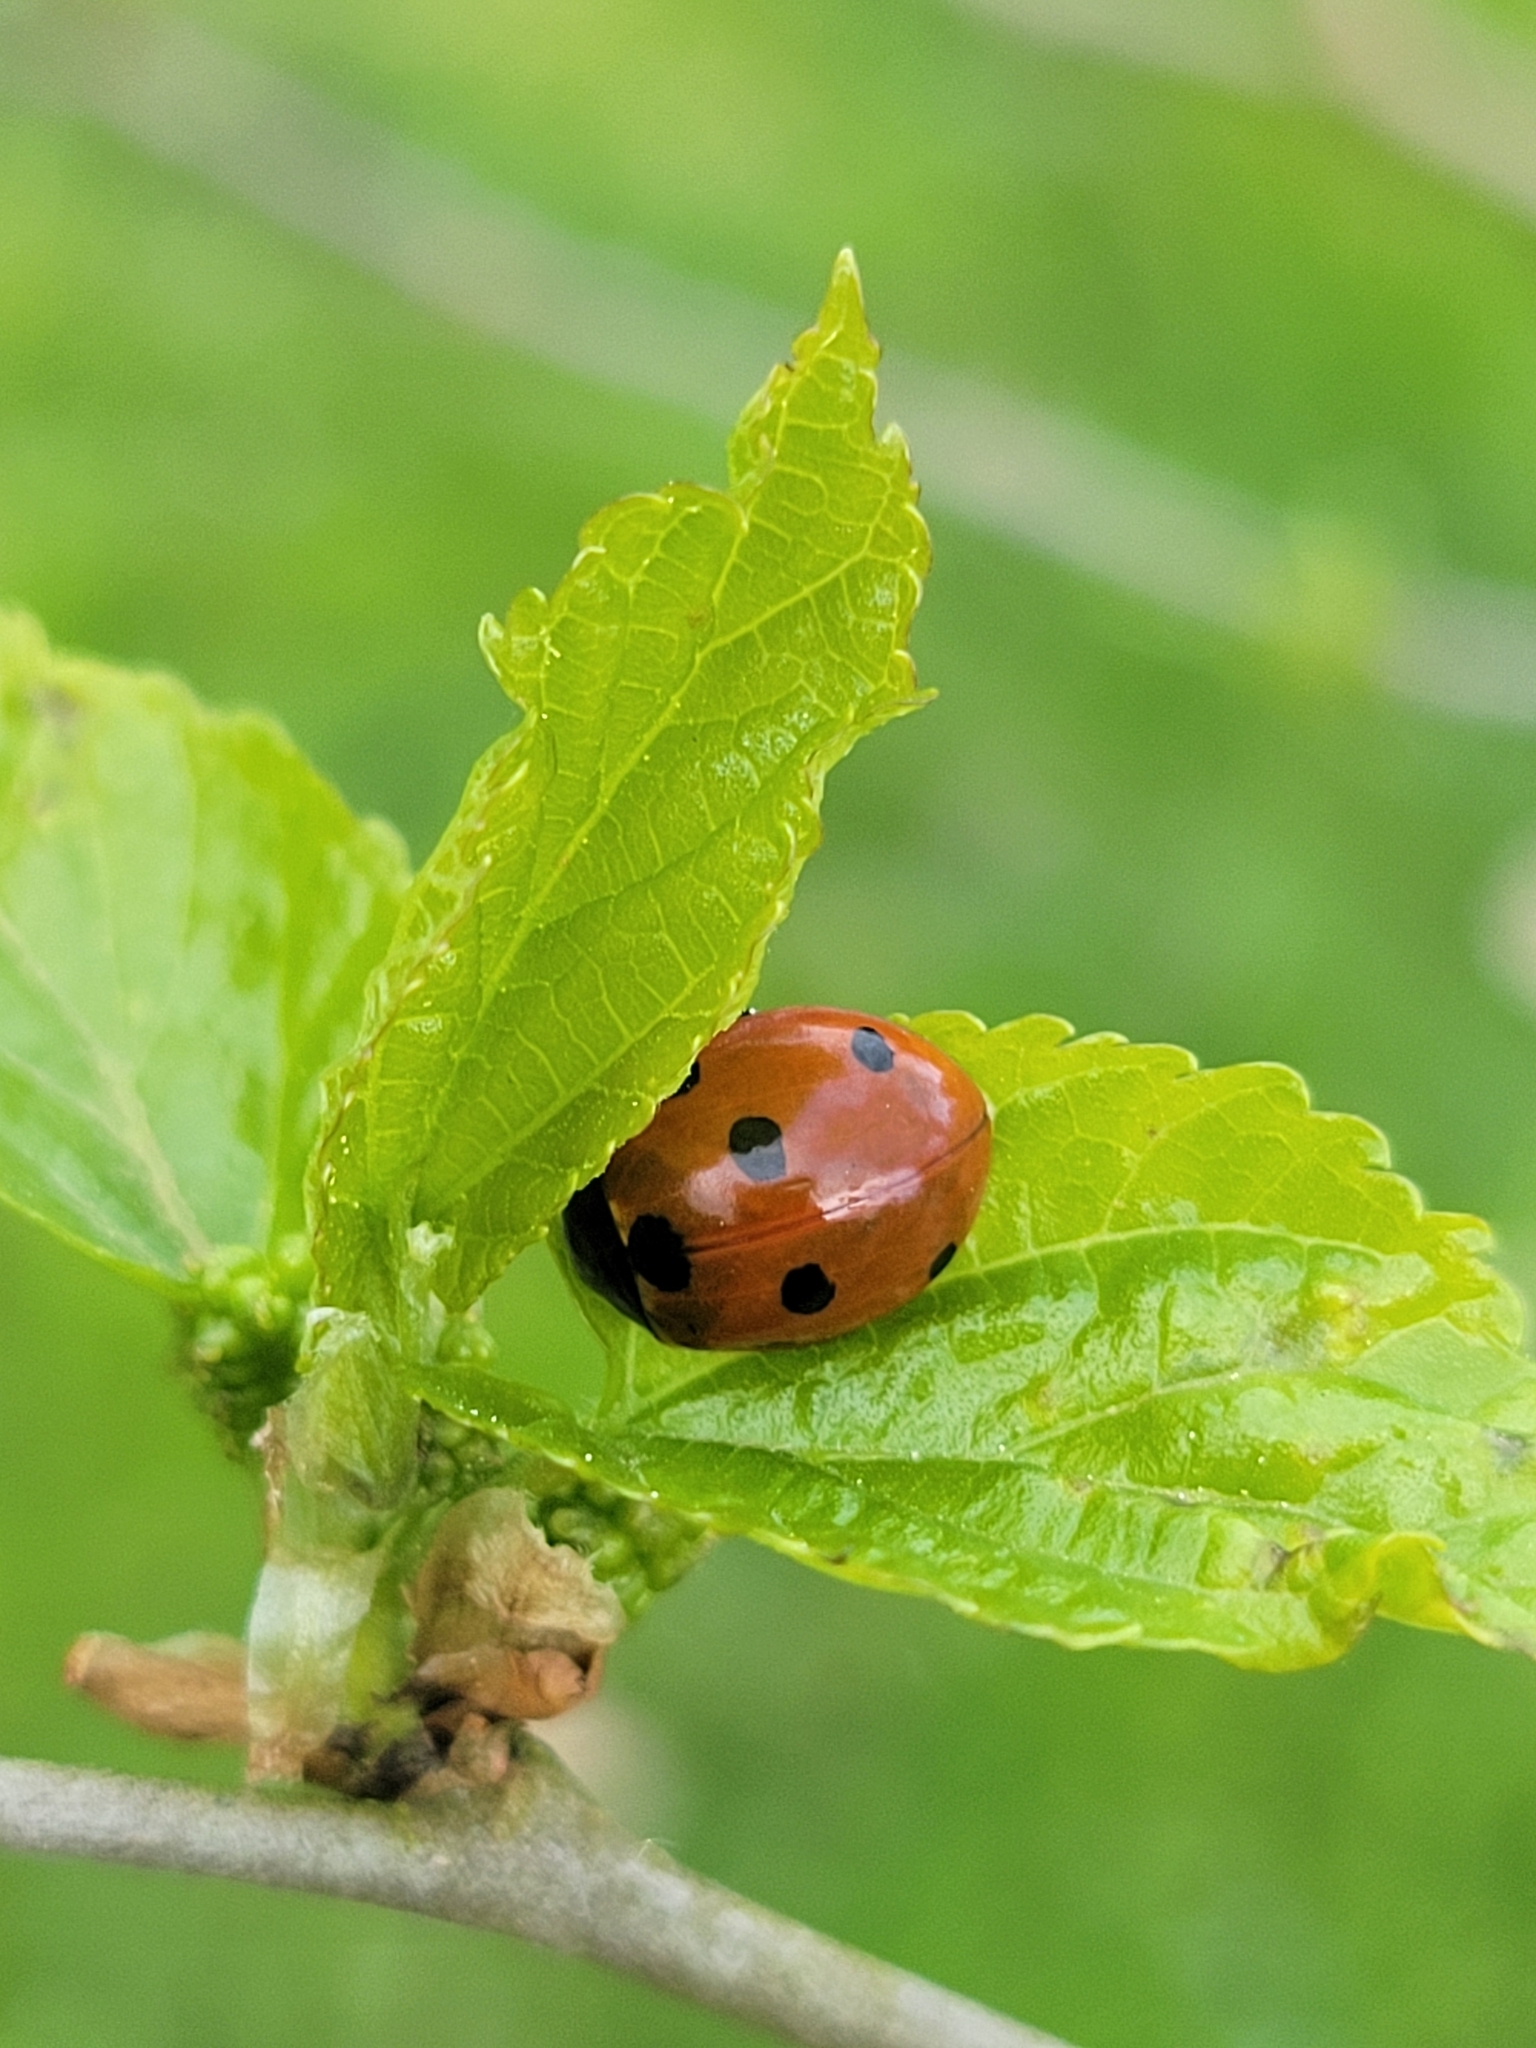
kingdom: Animalia
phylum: Arthropoda
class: Insecta
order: Coleoptera
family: Coccinellidae
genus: Coccinella
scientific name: Coccinella septempunctata
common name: Sevenspotted lady beetle
